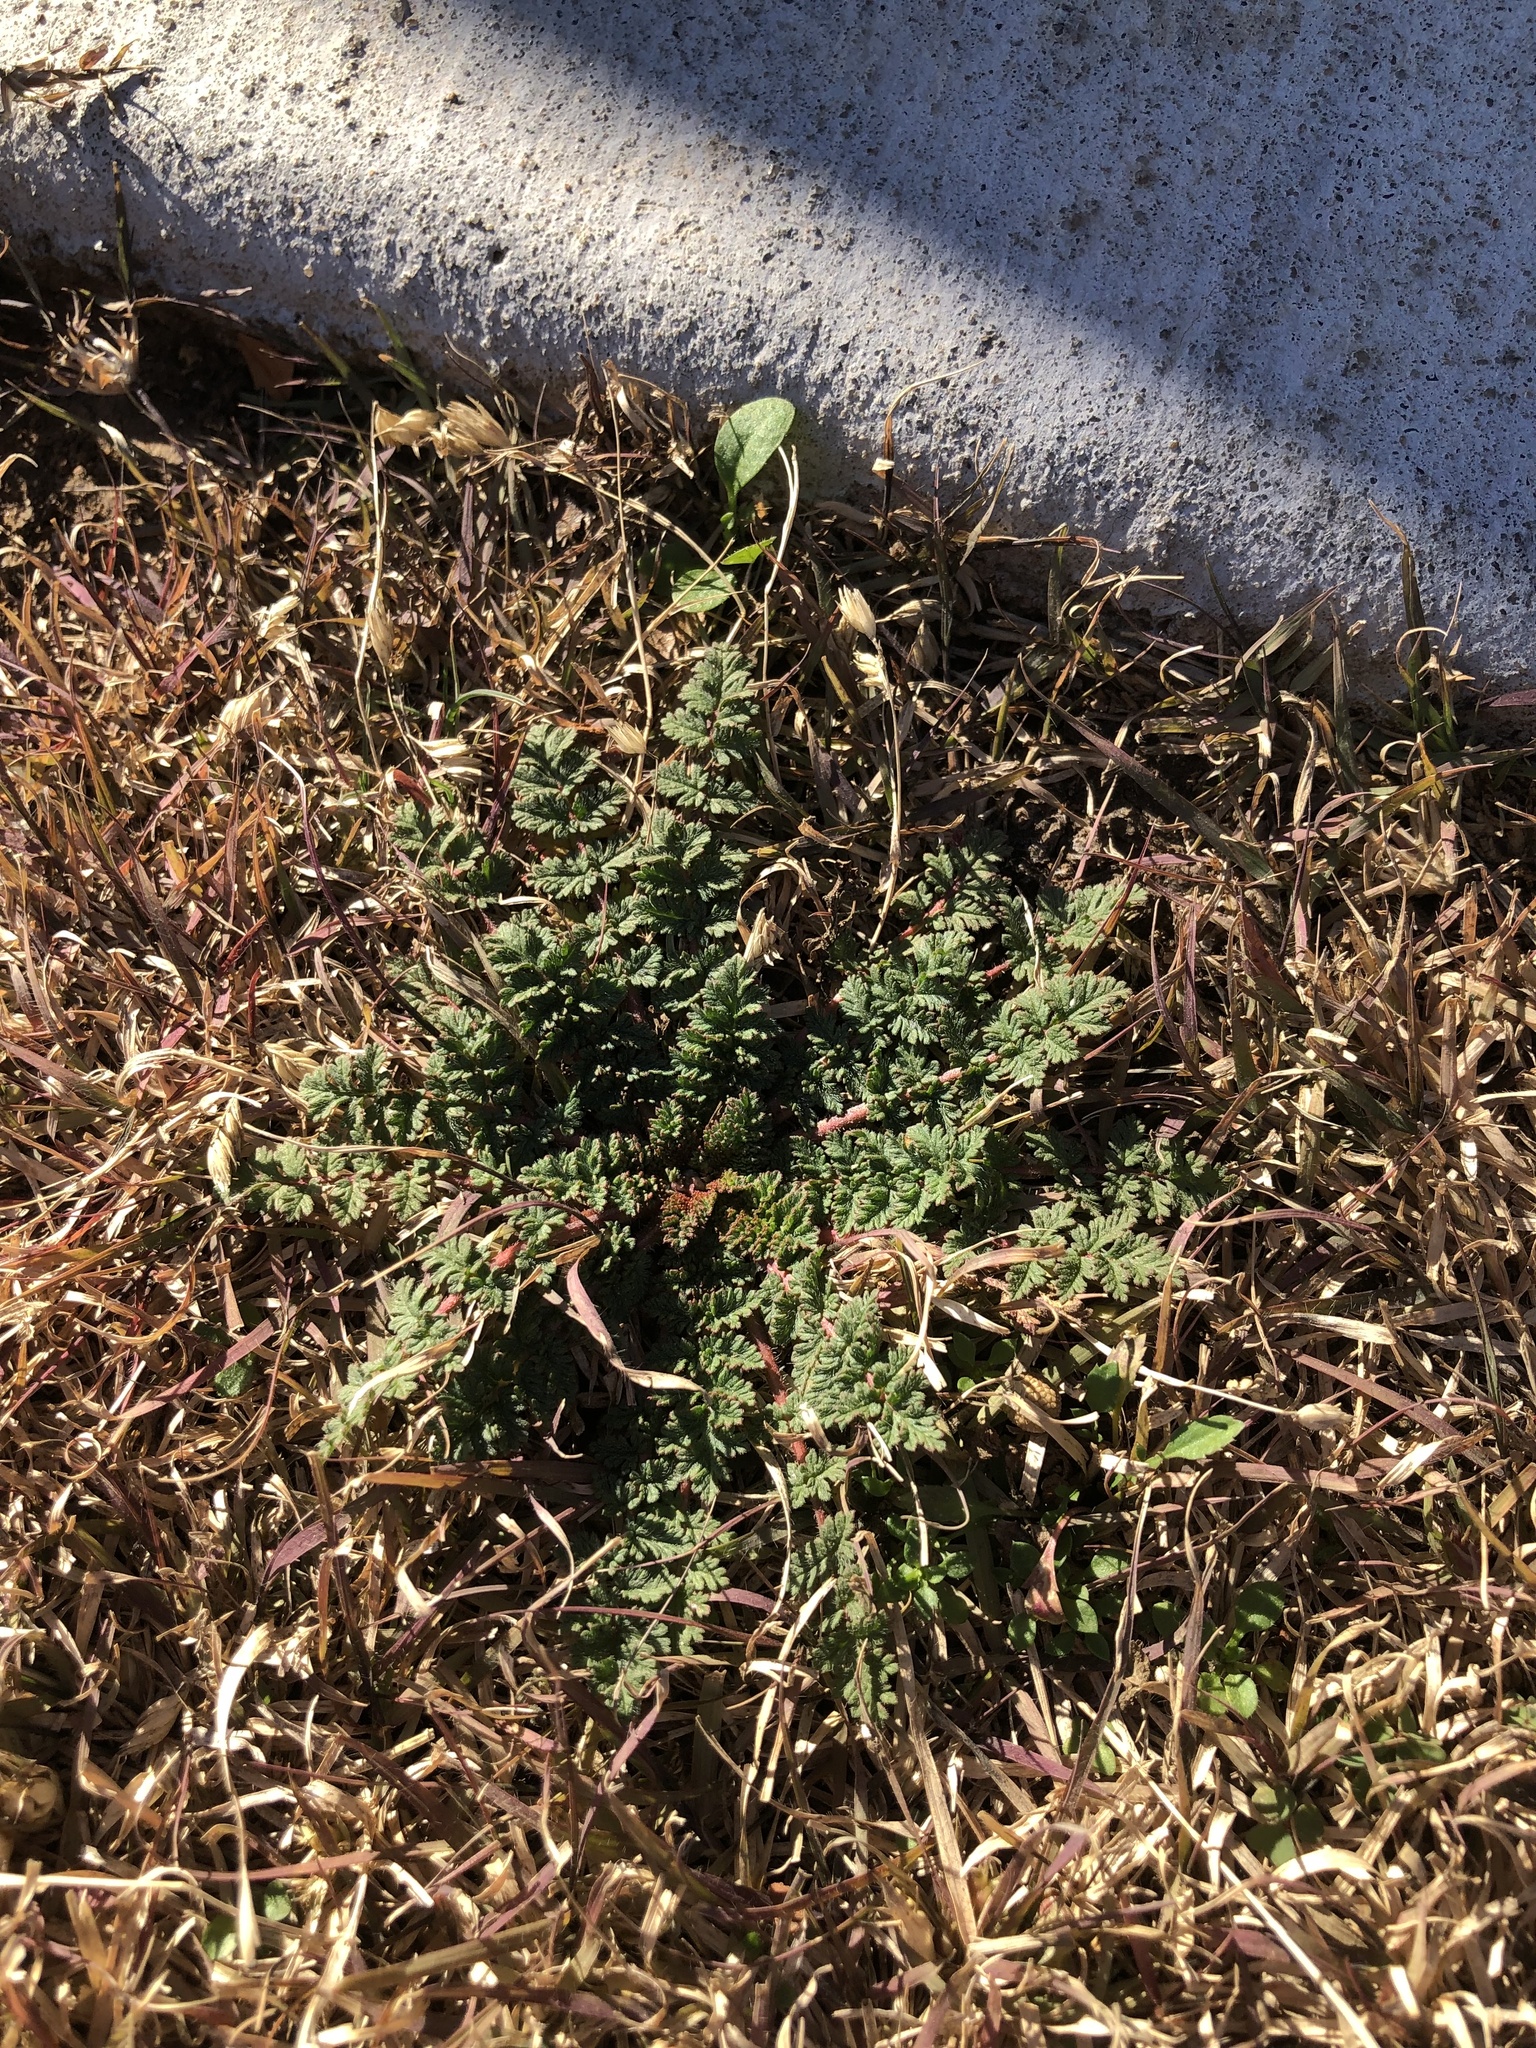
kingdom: Plantae
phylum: Tracheophyta
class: Magnoliopsida
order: Geraniales
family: Geraniaceae
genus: Erodium
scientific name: Erodium cicutarium
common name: Common stork's-bill
